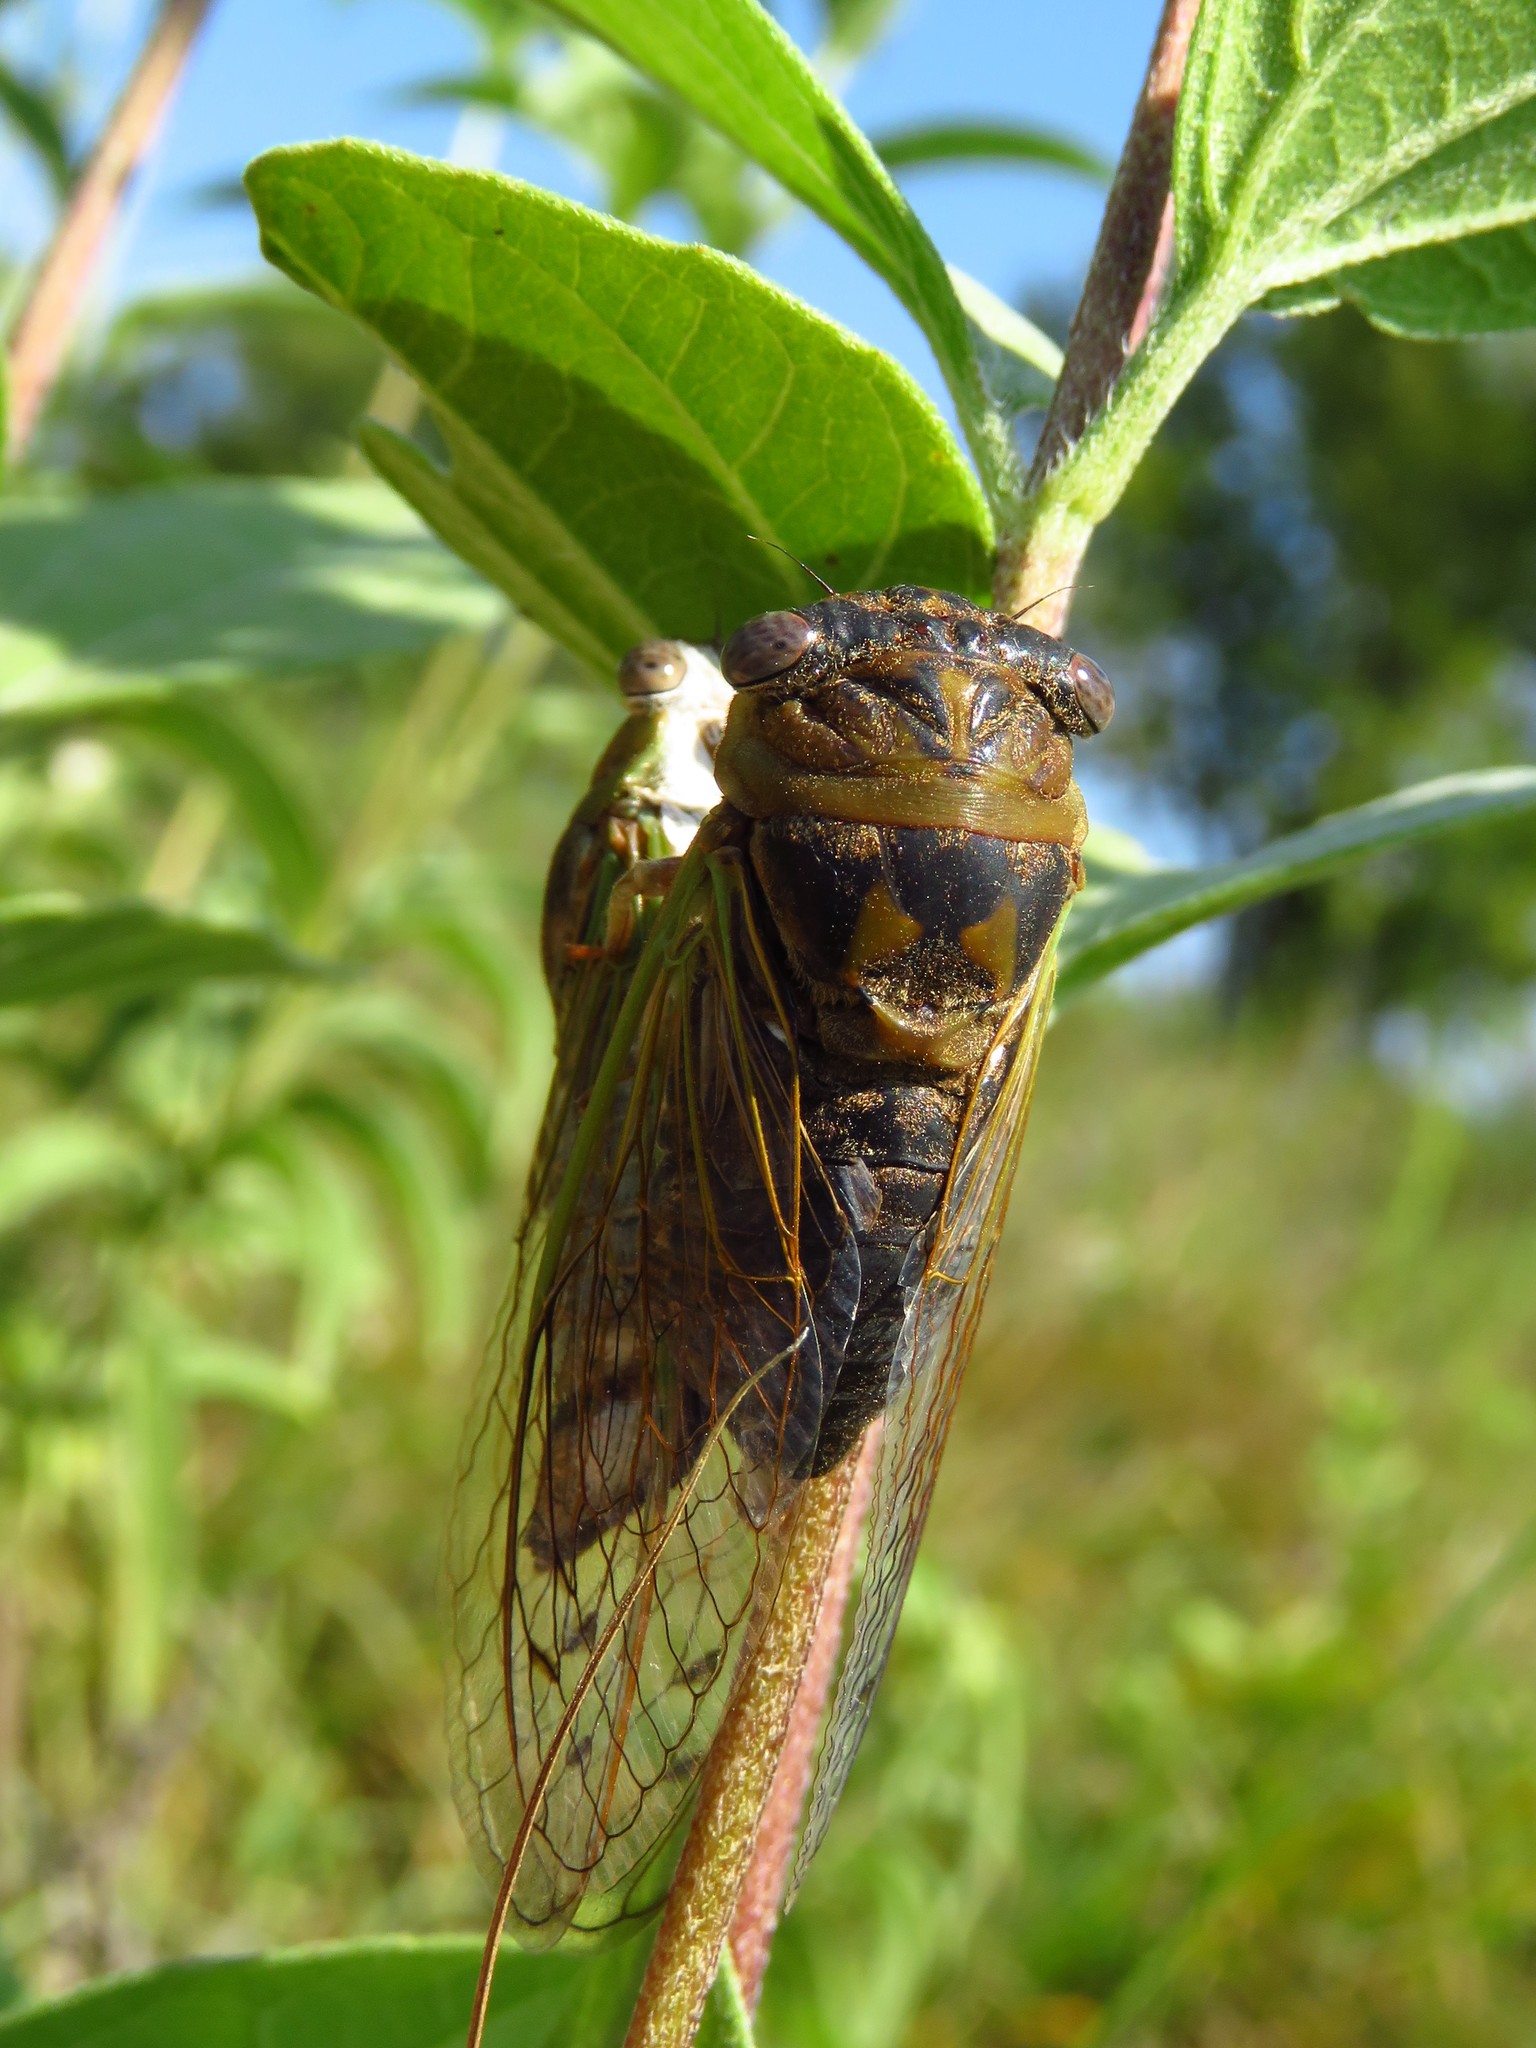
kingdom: Animalia
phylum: Arthropoda
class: Insecta
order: Hemiptera
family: Cicadidae
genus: Neotibicen
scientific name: Neotibicen aurifer
